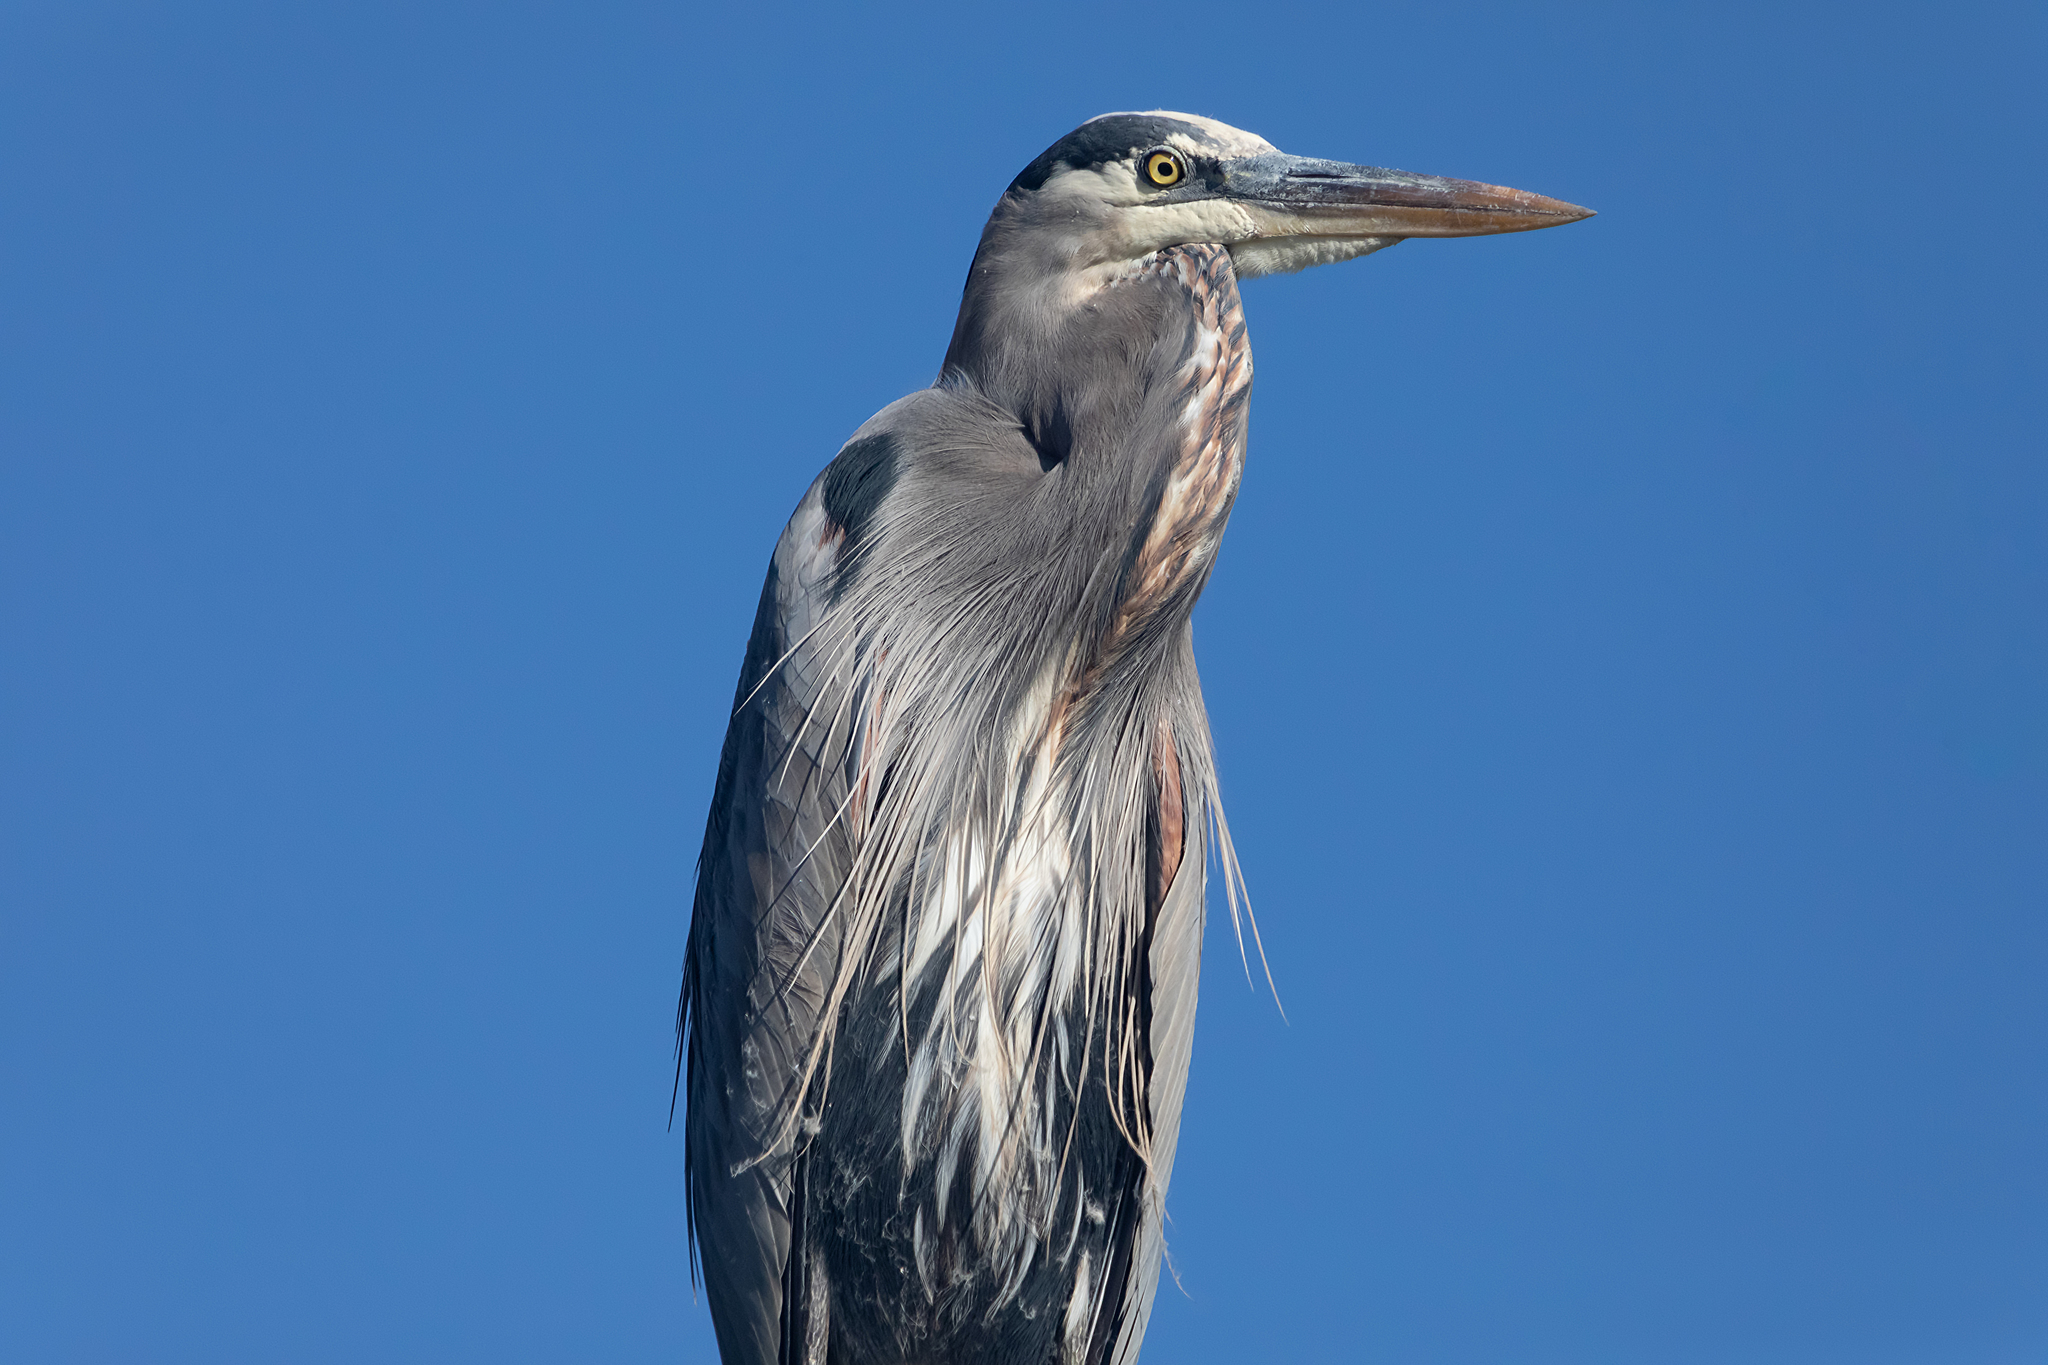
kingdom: Animalia
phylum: Chordata
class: Aves
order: Pelecaniformes
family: Ardeidae
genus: Ardea
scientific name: Ardea herodias
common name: Great blue heron
